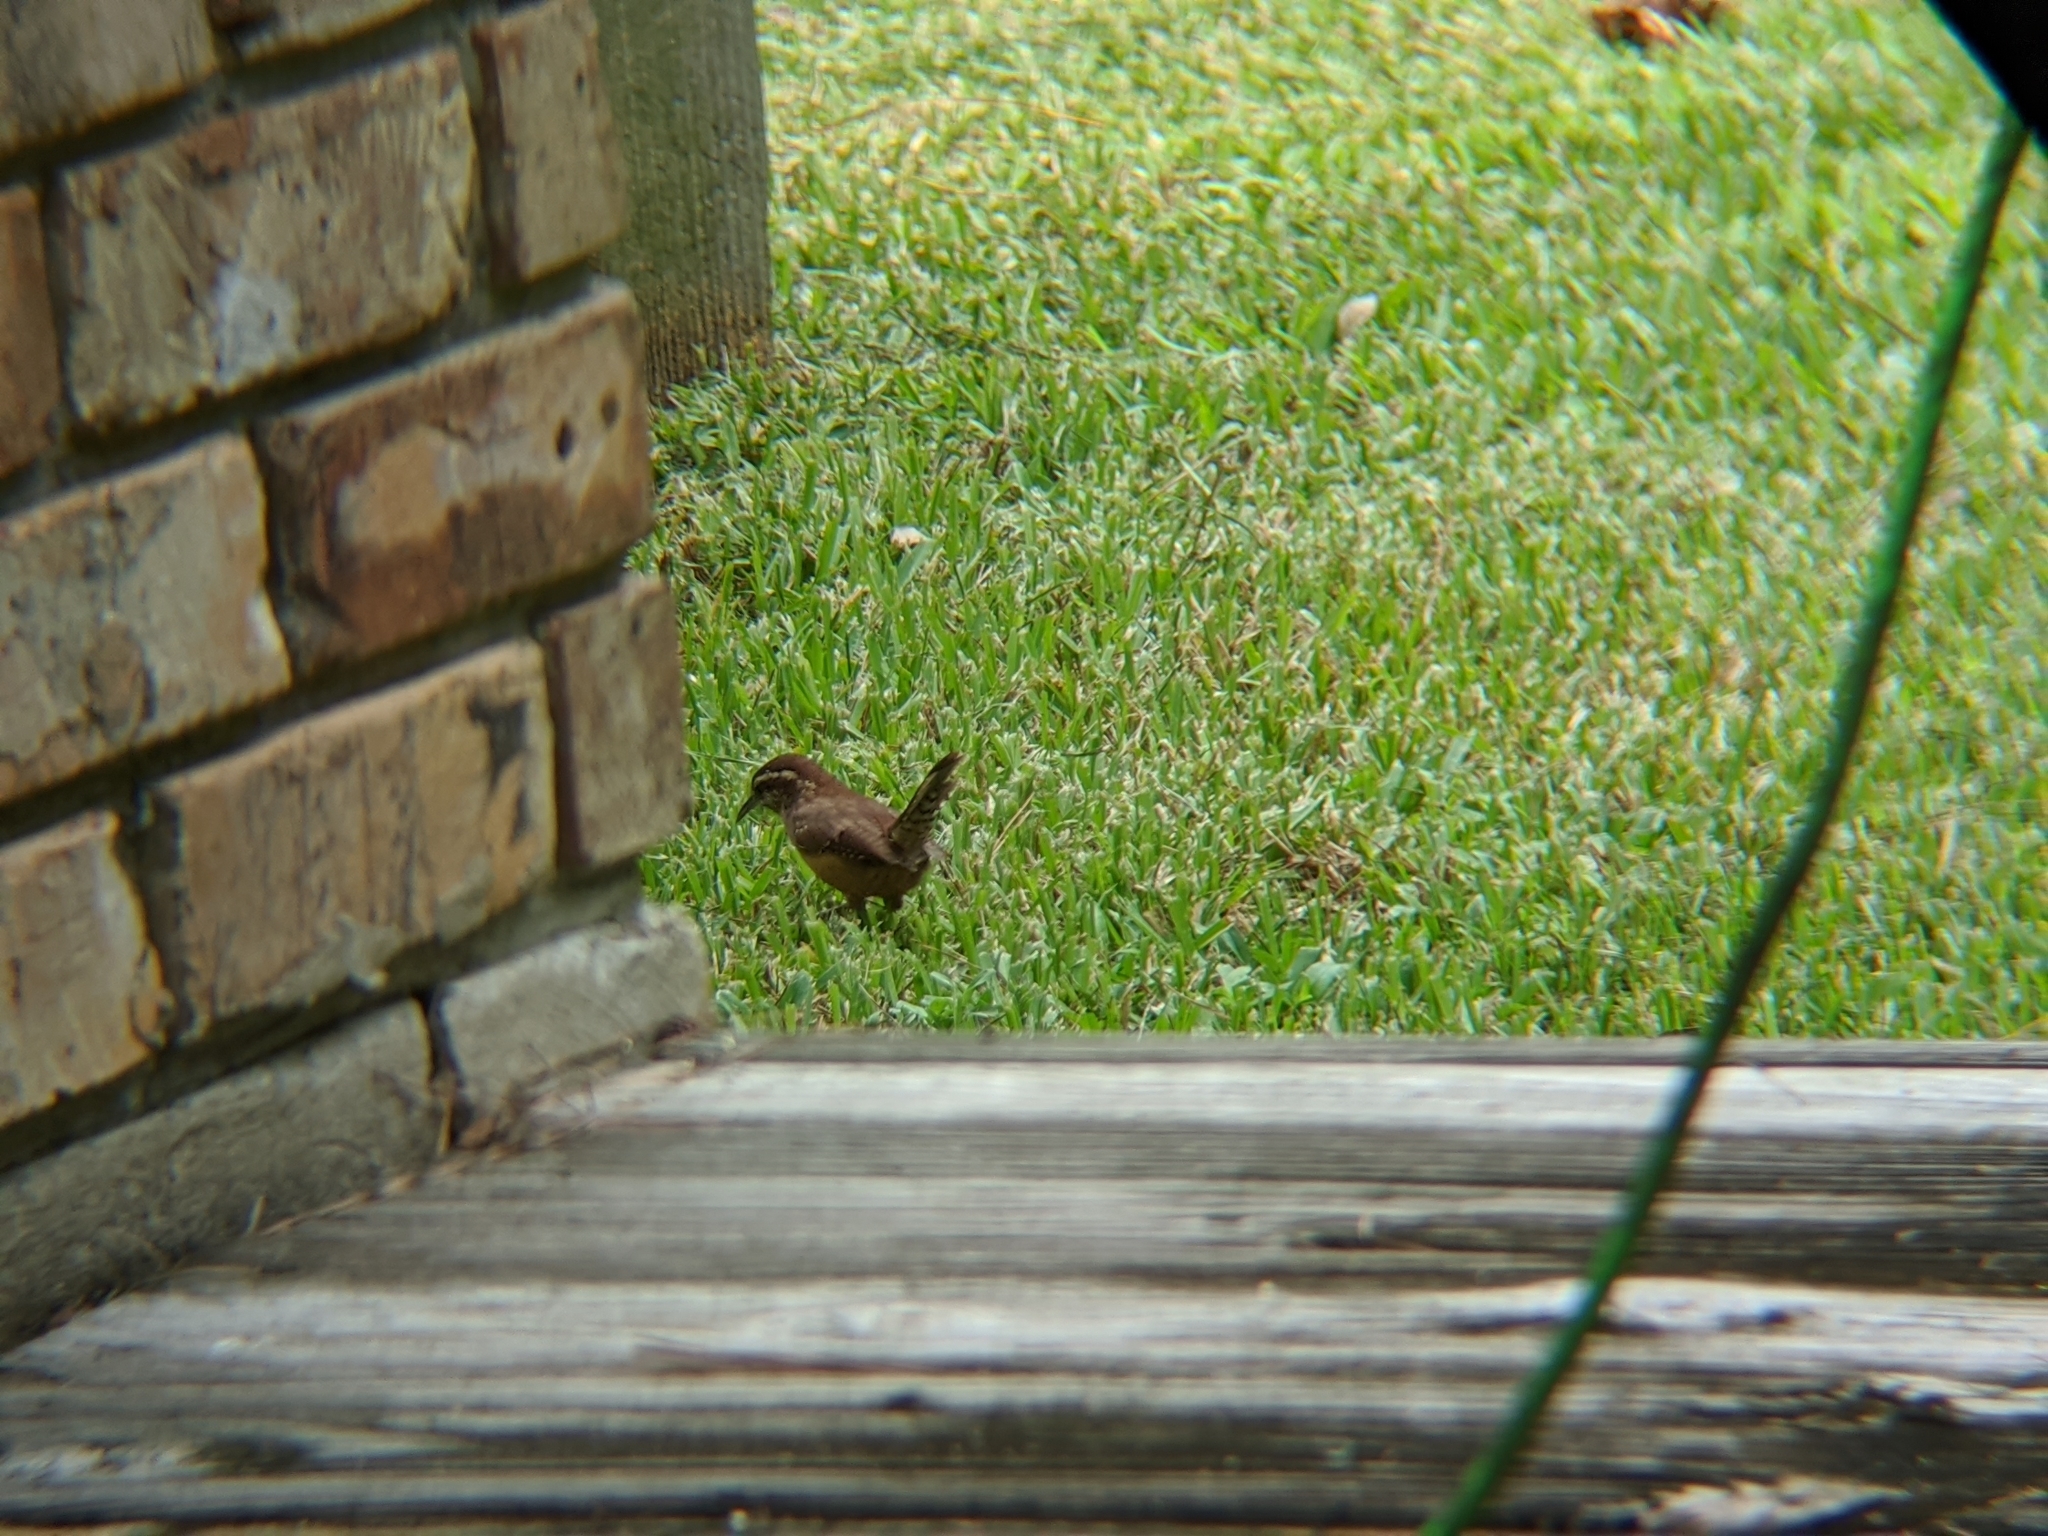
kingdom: Animalia
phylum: Chordata
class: Aves
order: Passeriformes
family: Troglodytidae
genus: Thryothorus
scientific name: Thryothorus ludovicianus
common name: Carolina wren
